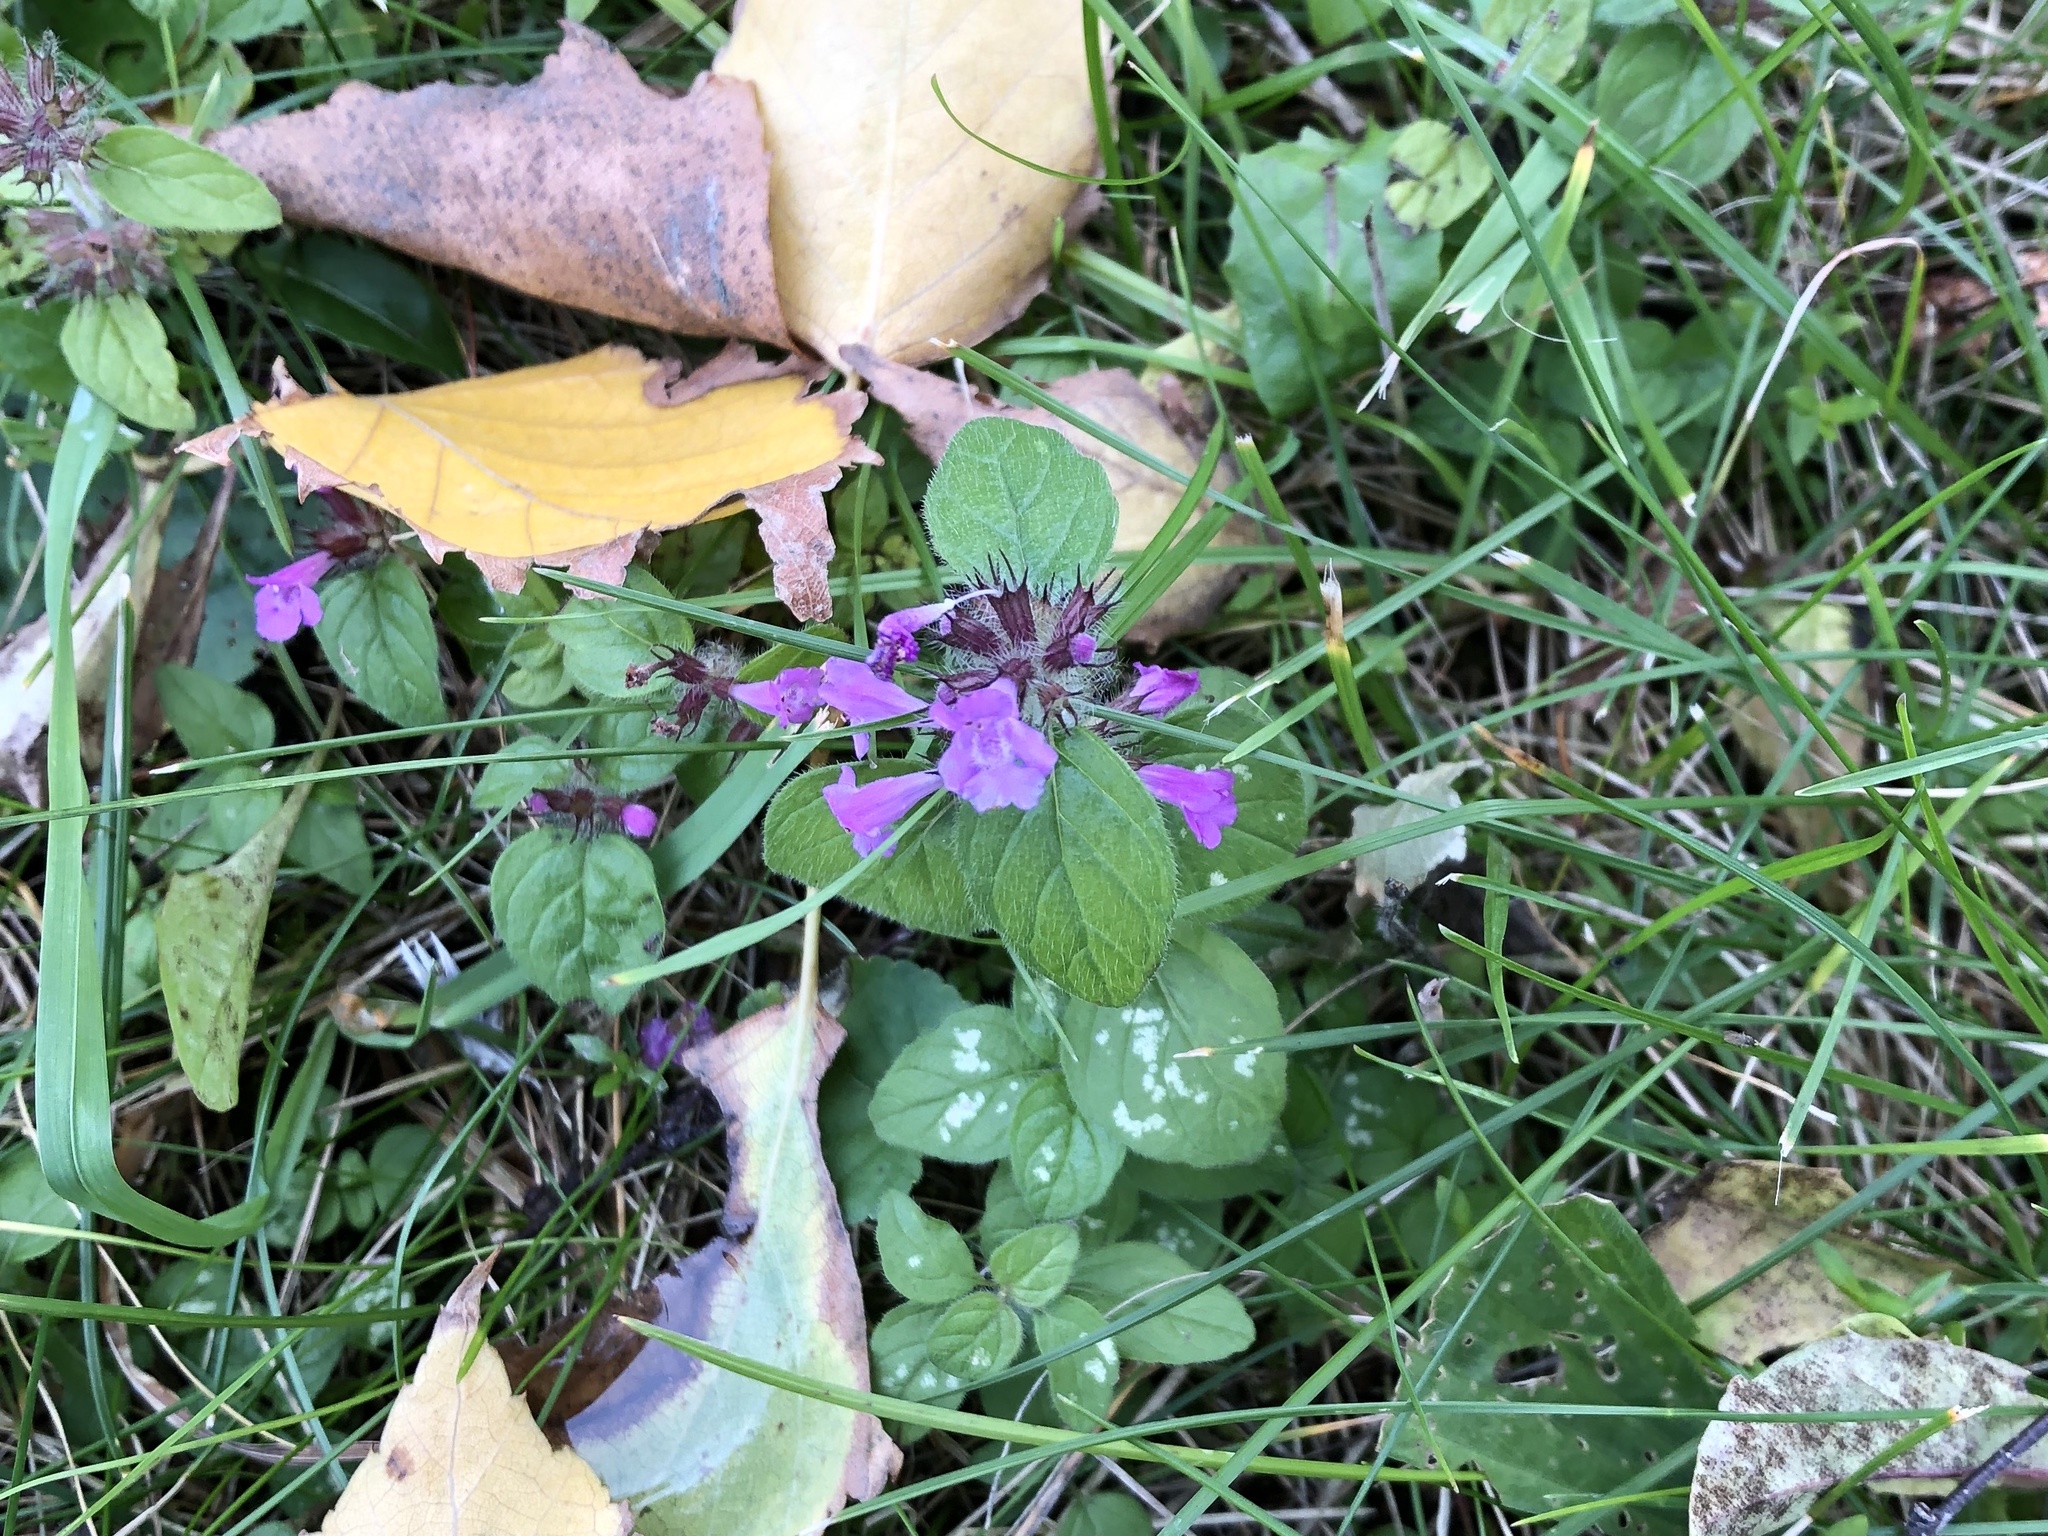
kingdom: Plantae
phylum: Tracheophyta
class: Magnoliopsida
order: Lamiales
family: Lamiaceae
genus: Clinopodium
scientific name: Clinopodium vulgare
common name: Wild basil
